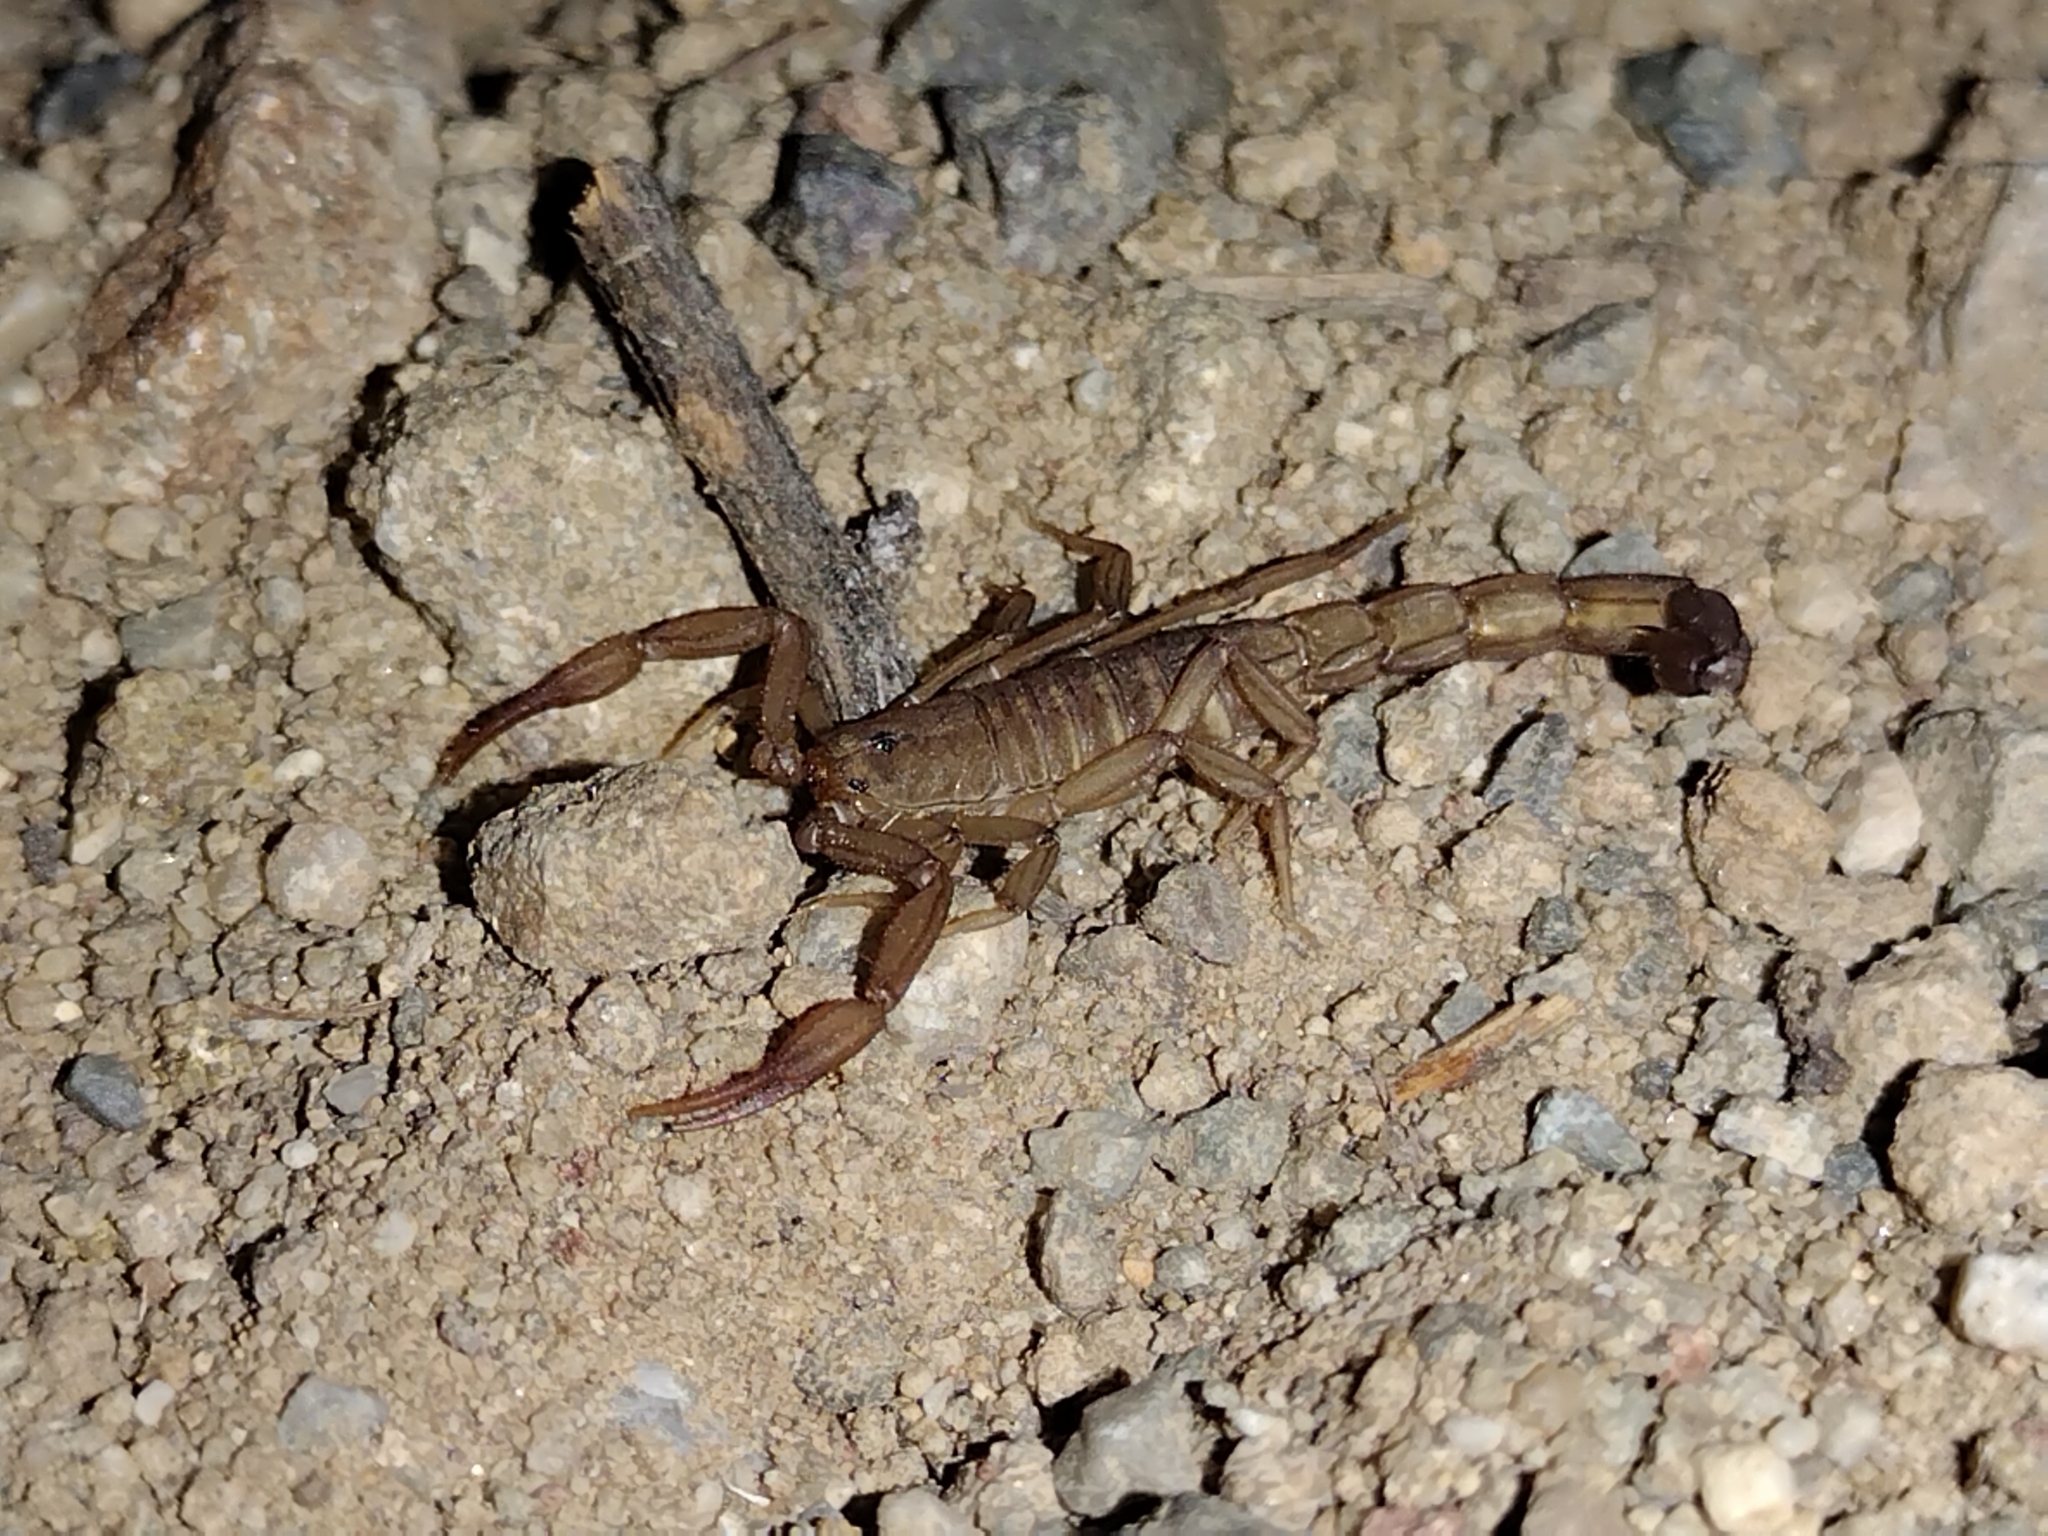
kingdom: Animalia
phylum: Arthropoda
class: Arachnida
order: Scorpiones
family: Vaejovidae
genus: Serradigitus
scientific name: Serradigitus gertschi
